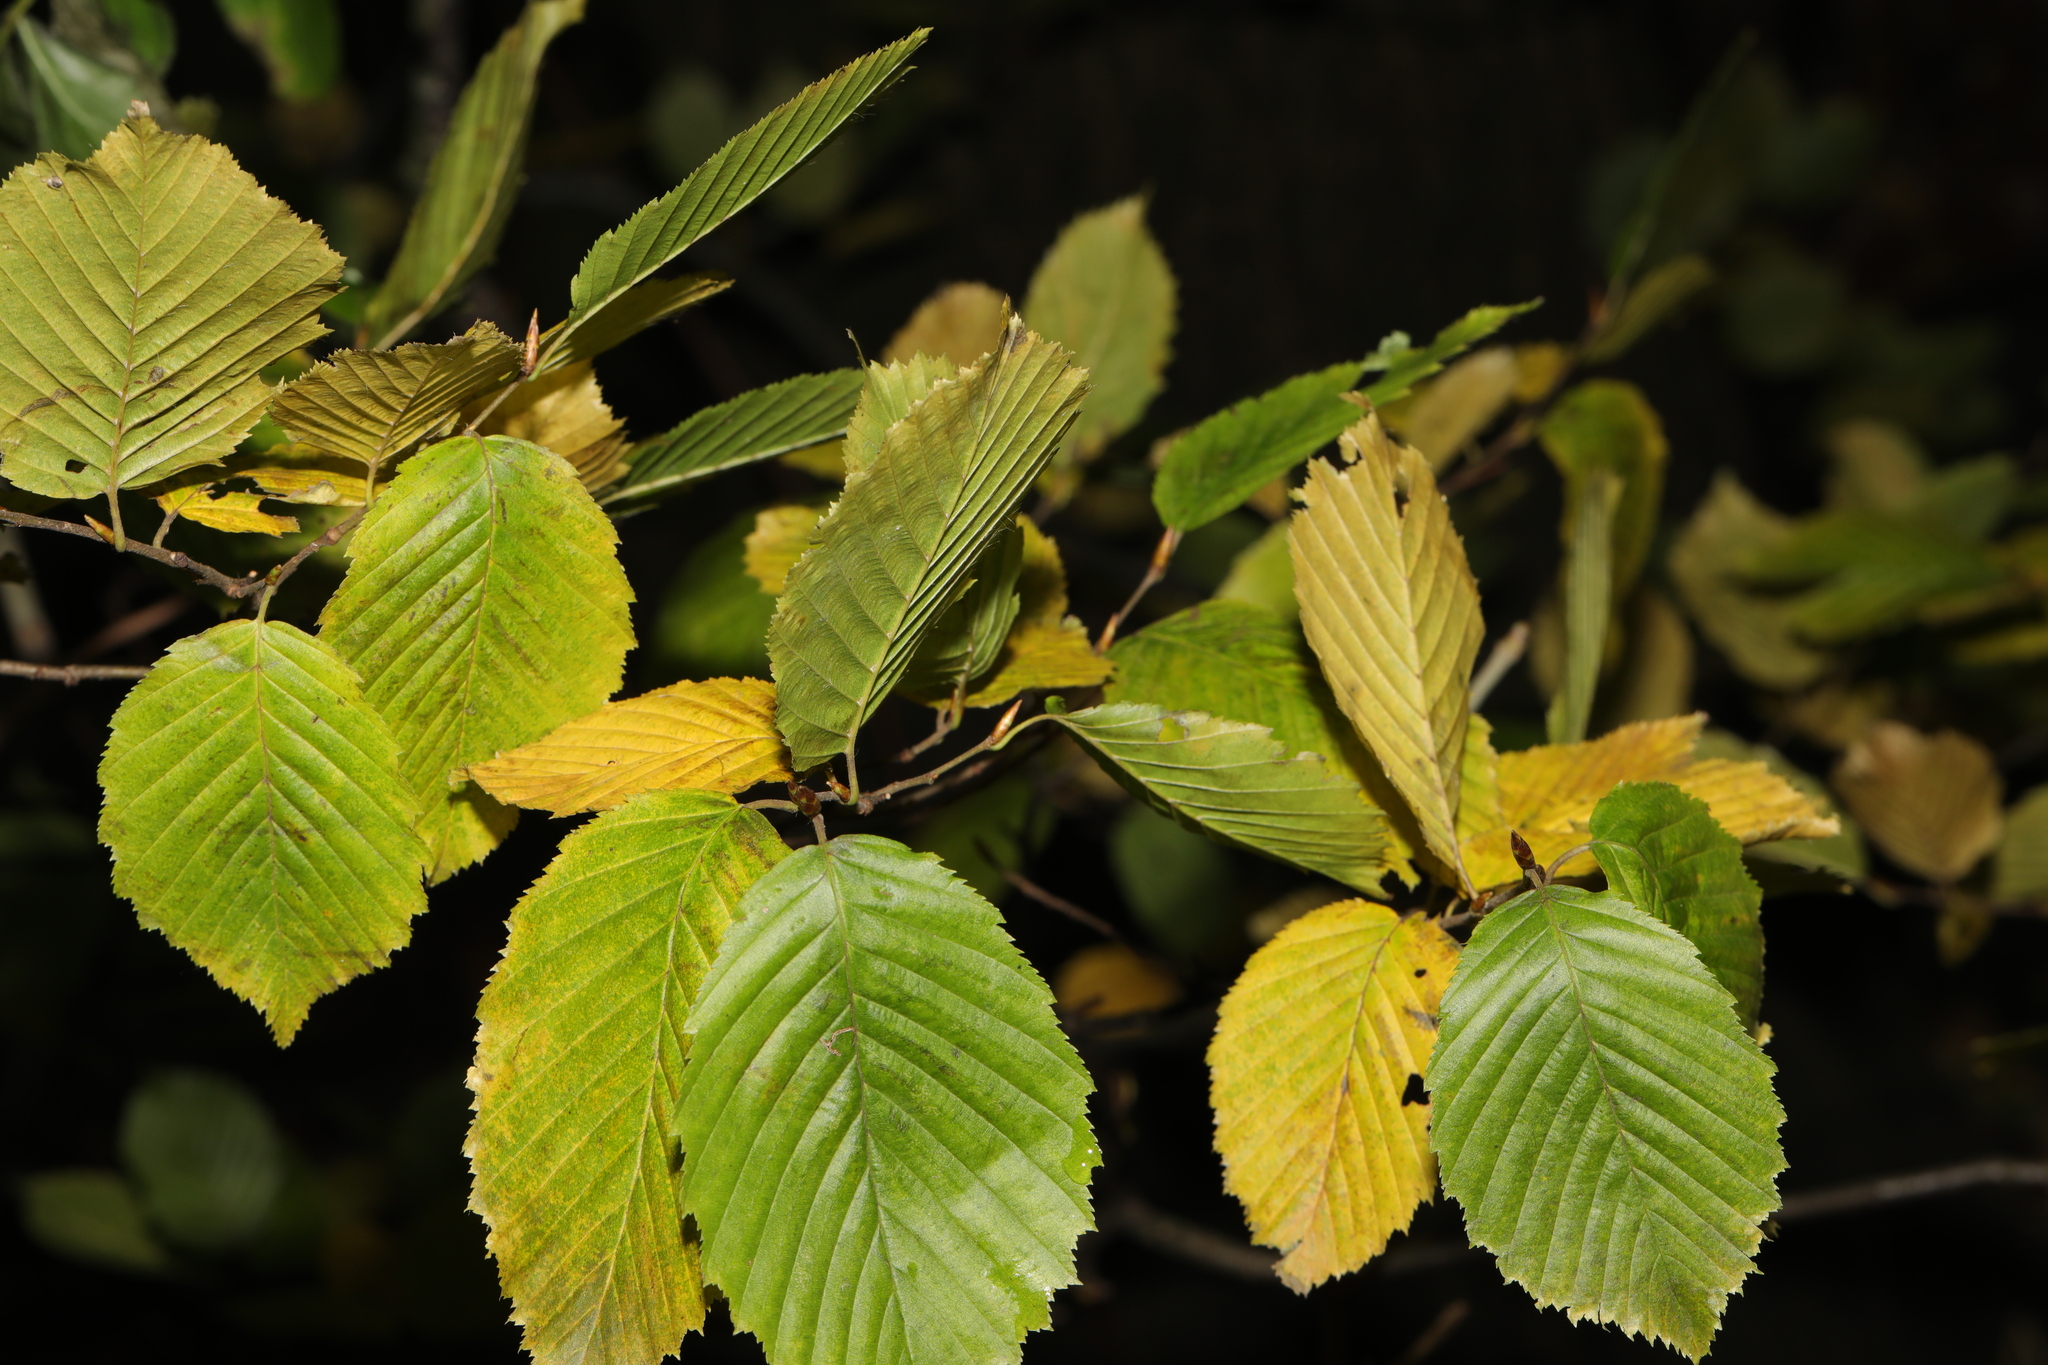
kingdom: Plantae
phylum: Tracheophyta
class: Magnoliopsida
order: Fagales
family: Betulaceae
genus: Carpinus
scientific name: Carpinus betulus
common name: Hornbeam
